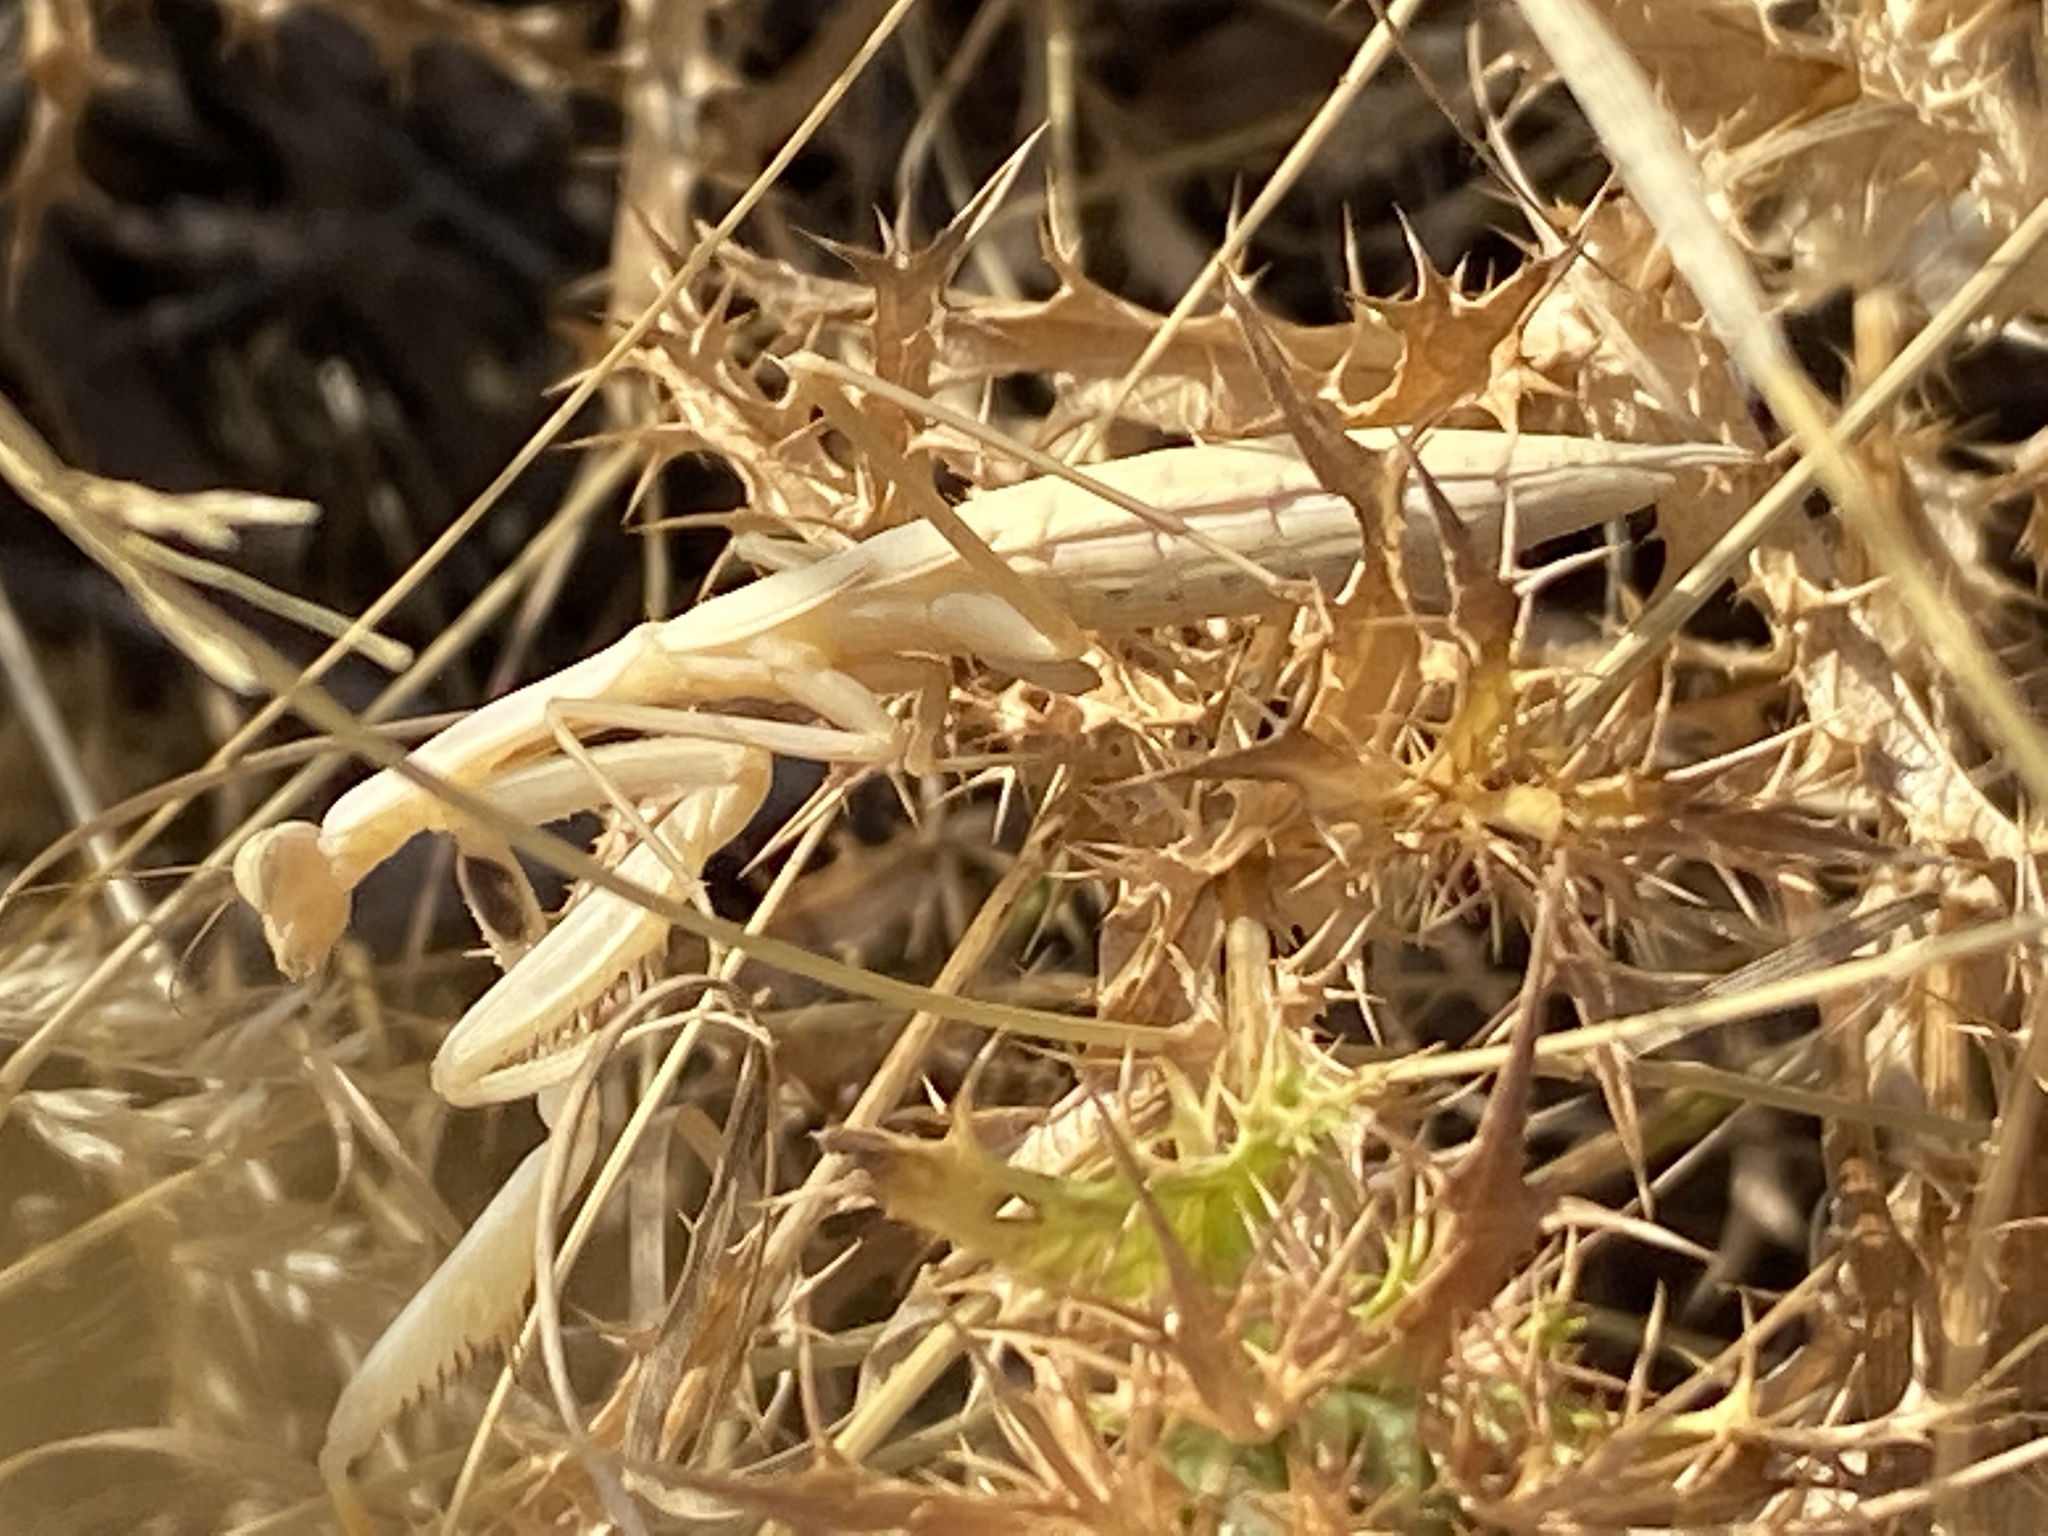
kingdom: Animalia
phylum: Arthropoda
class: Insecta
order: Mantodea
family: Mantidae
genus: Mantis
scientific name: Mantis religiosa
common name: Praying mantis
